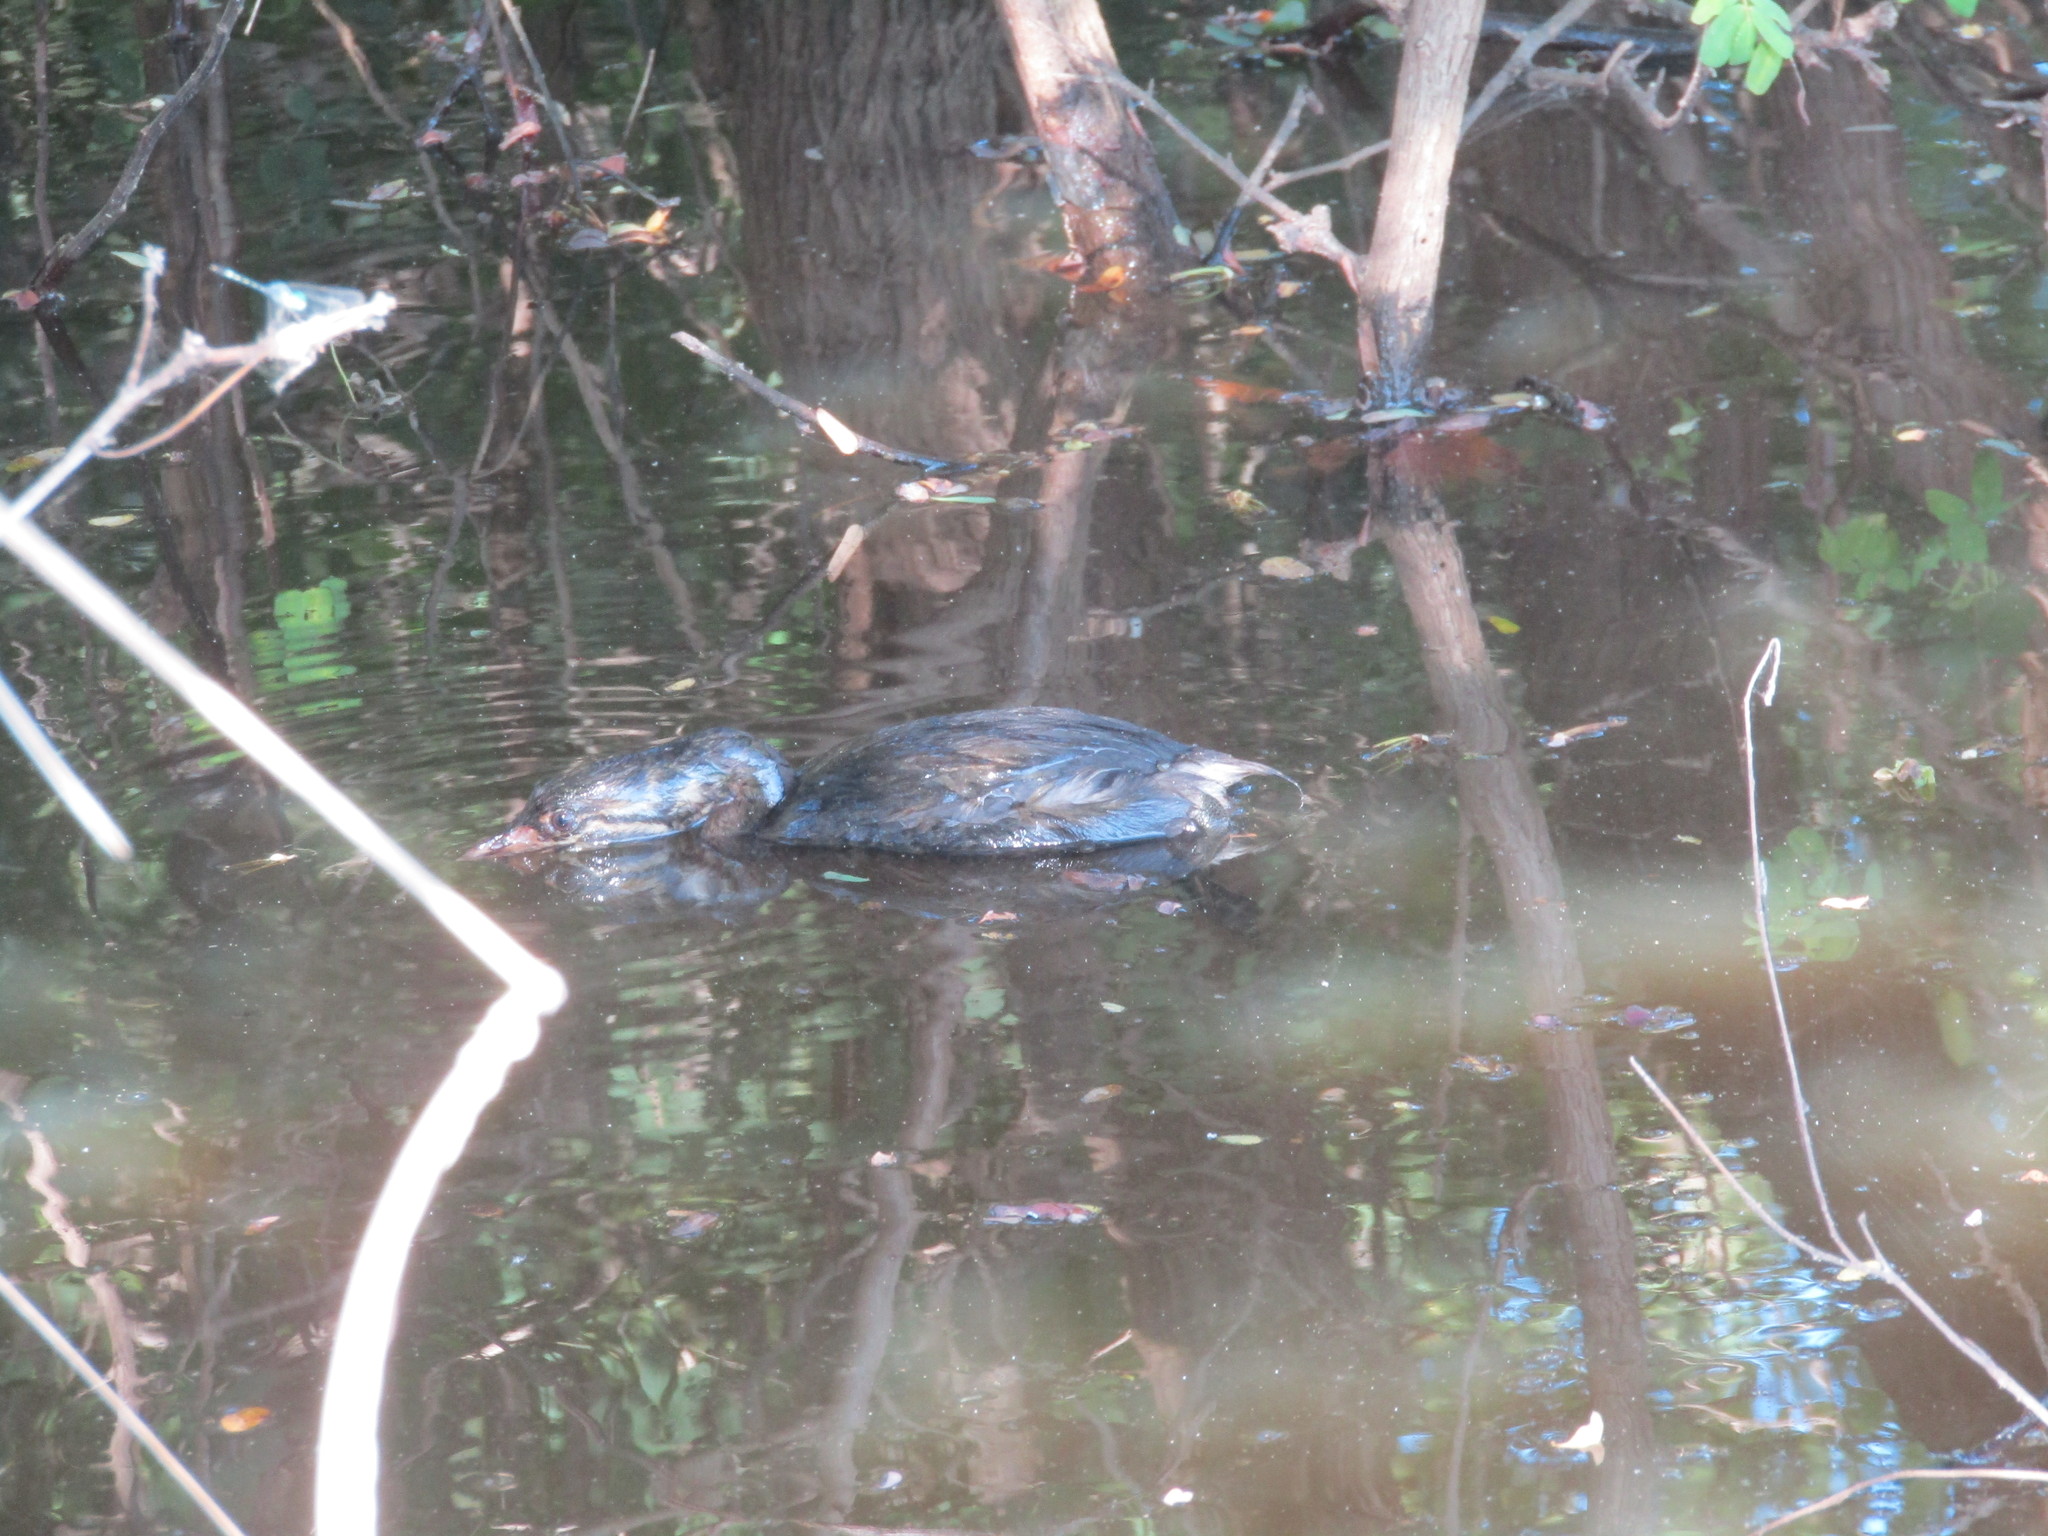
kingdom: Animalia
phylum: Chordata
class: Aves
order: Podicipediformes
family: Podicipedidae
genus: Podilymbus
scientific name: Podilymbus podiceps
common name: Pied-billed grebe
